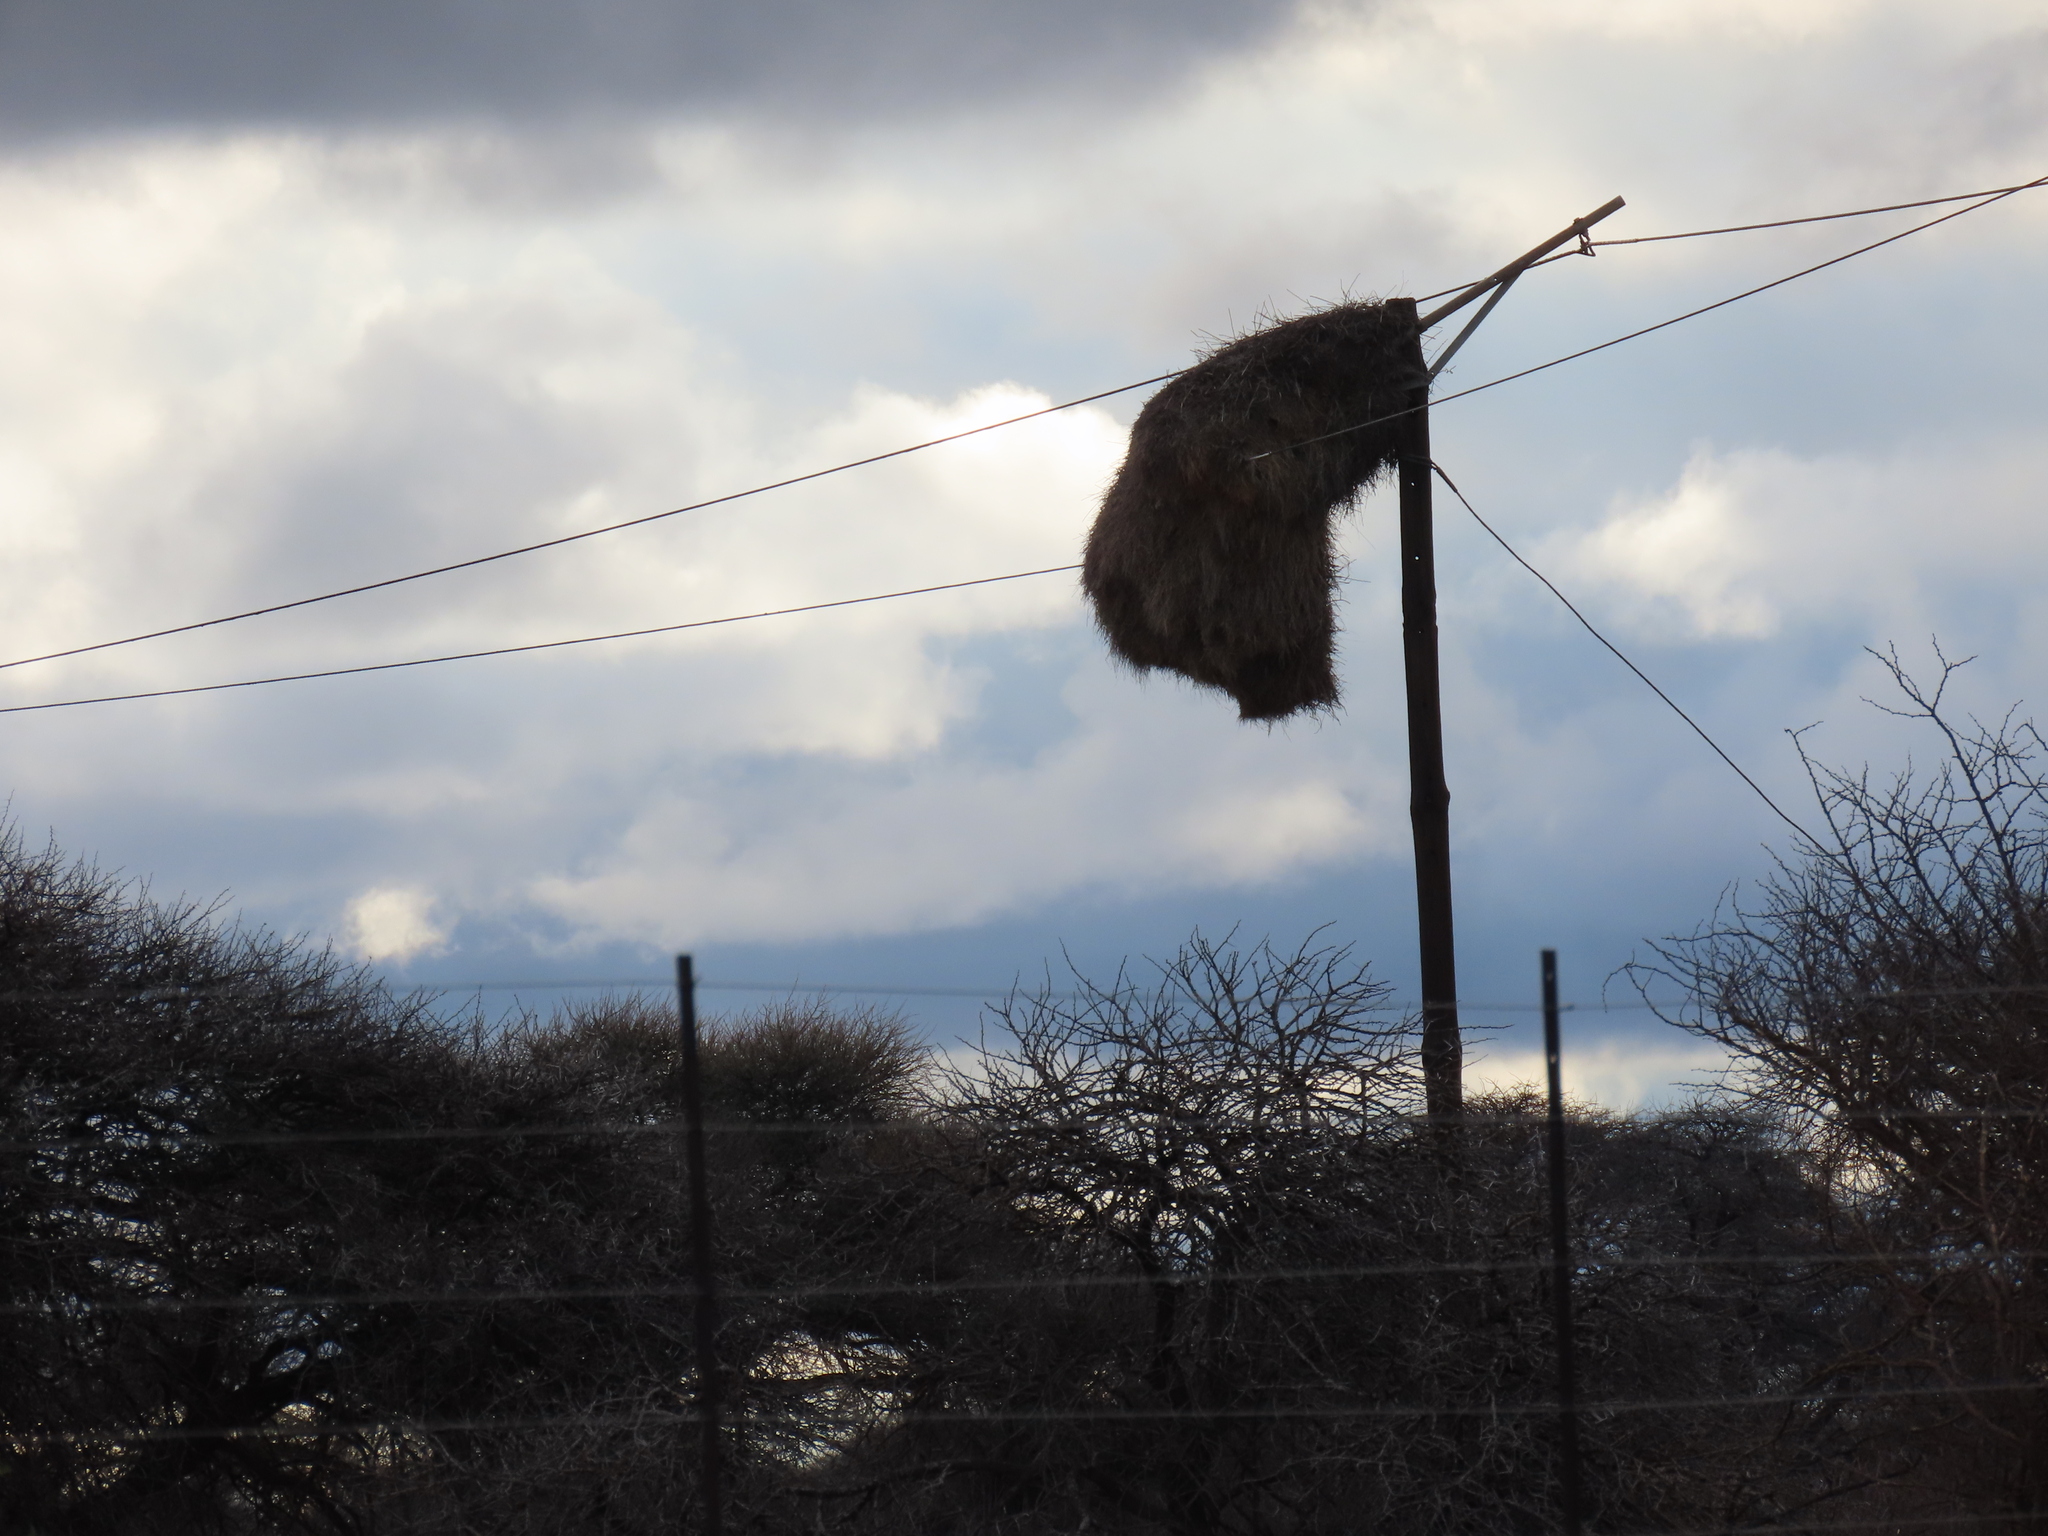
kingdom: Animalia
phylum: Chordata
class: Aves
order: Falconiformes
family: Falconidae
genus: Polihierax
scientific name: Polihierax semitorquatus
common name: Pygmy falcon
